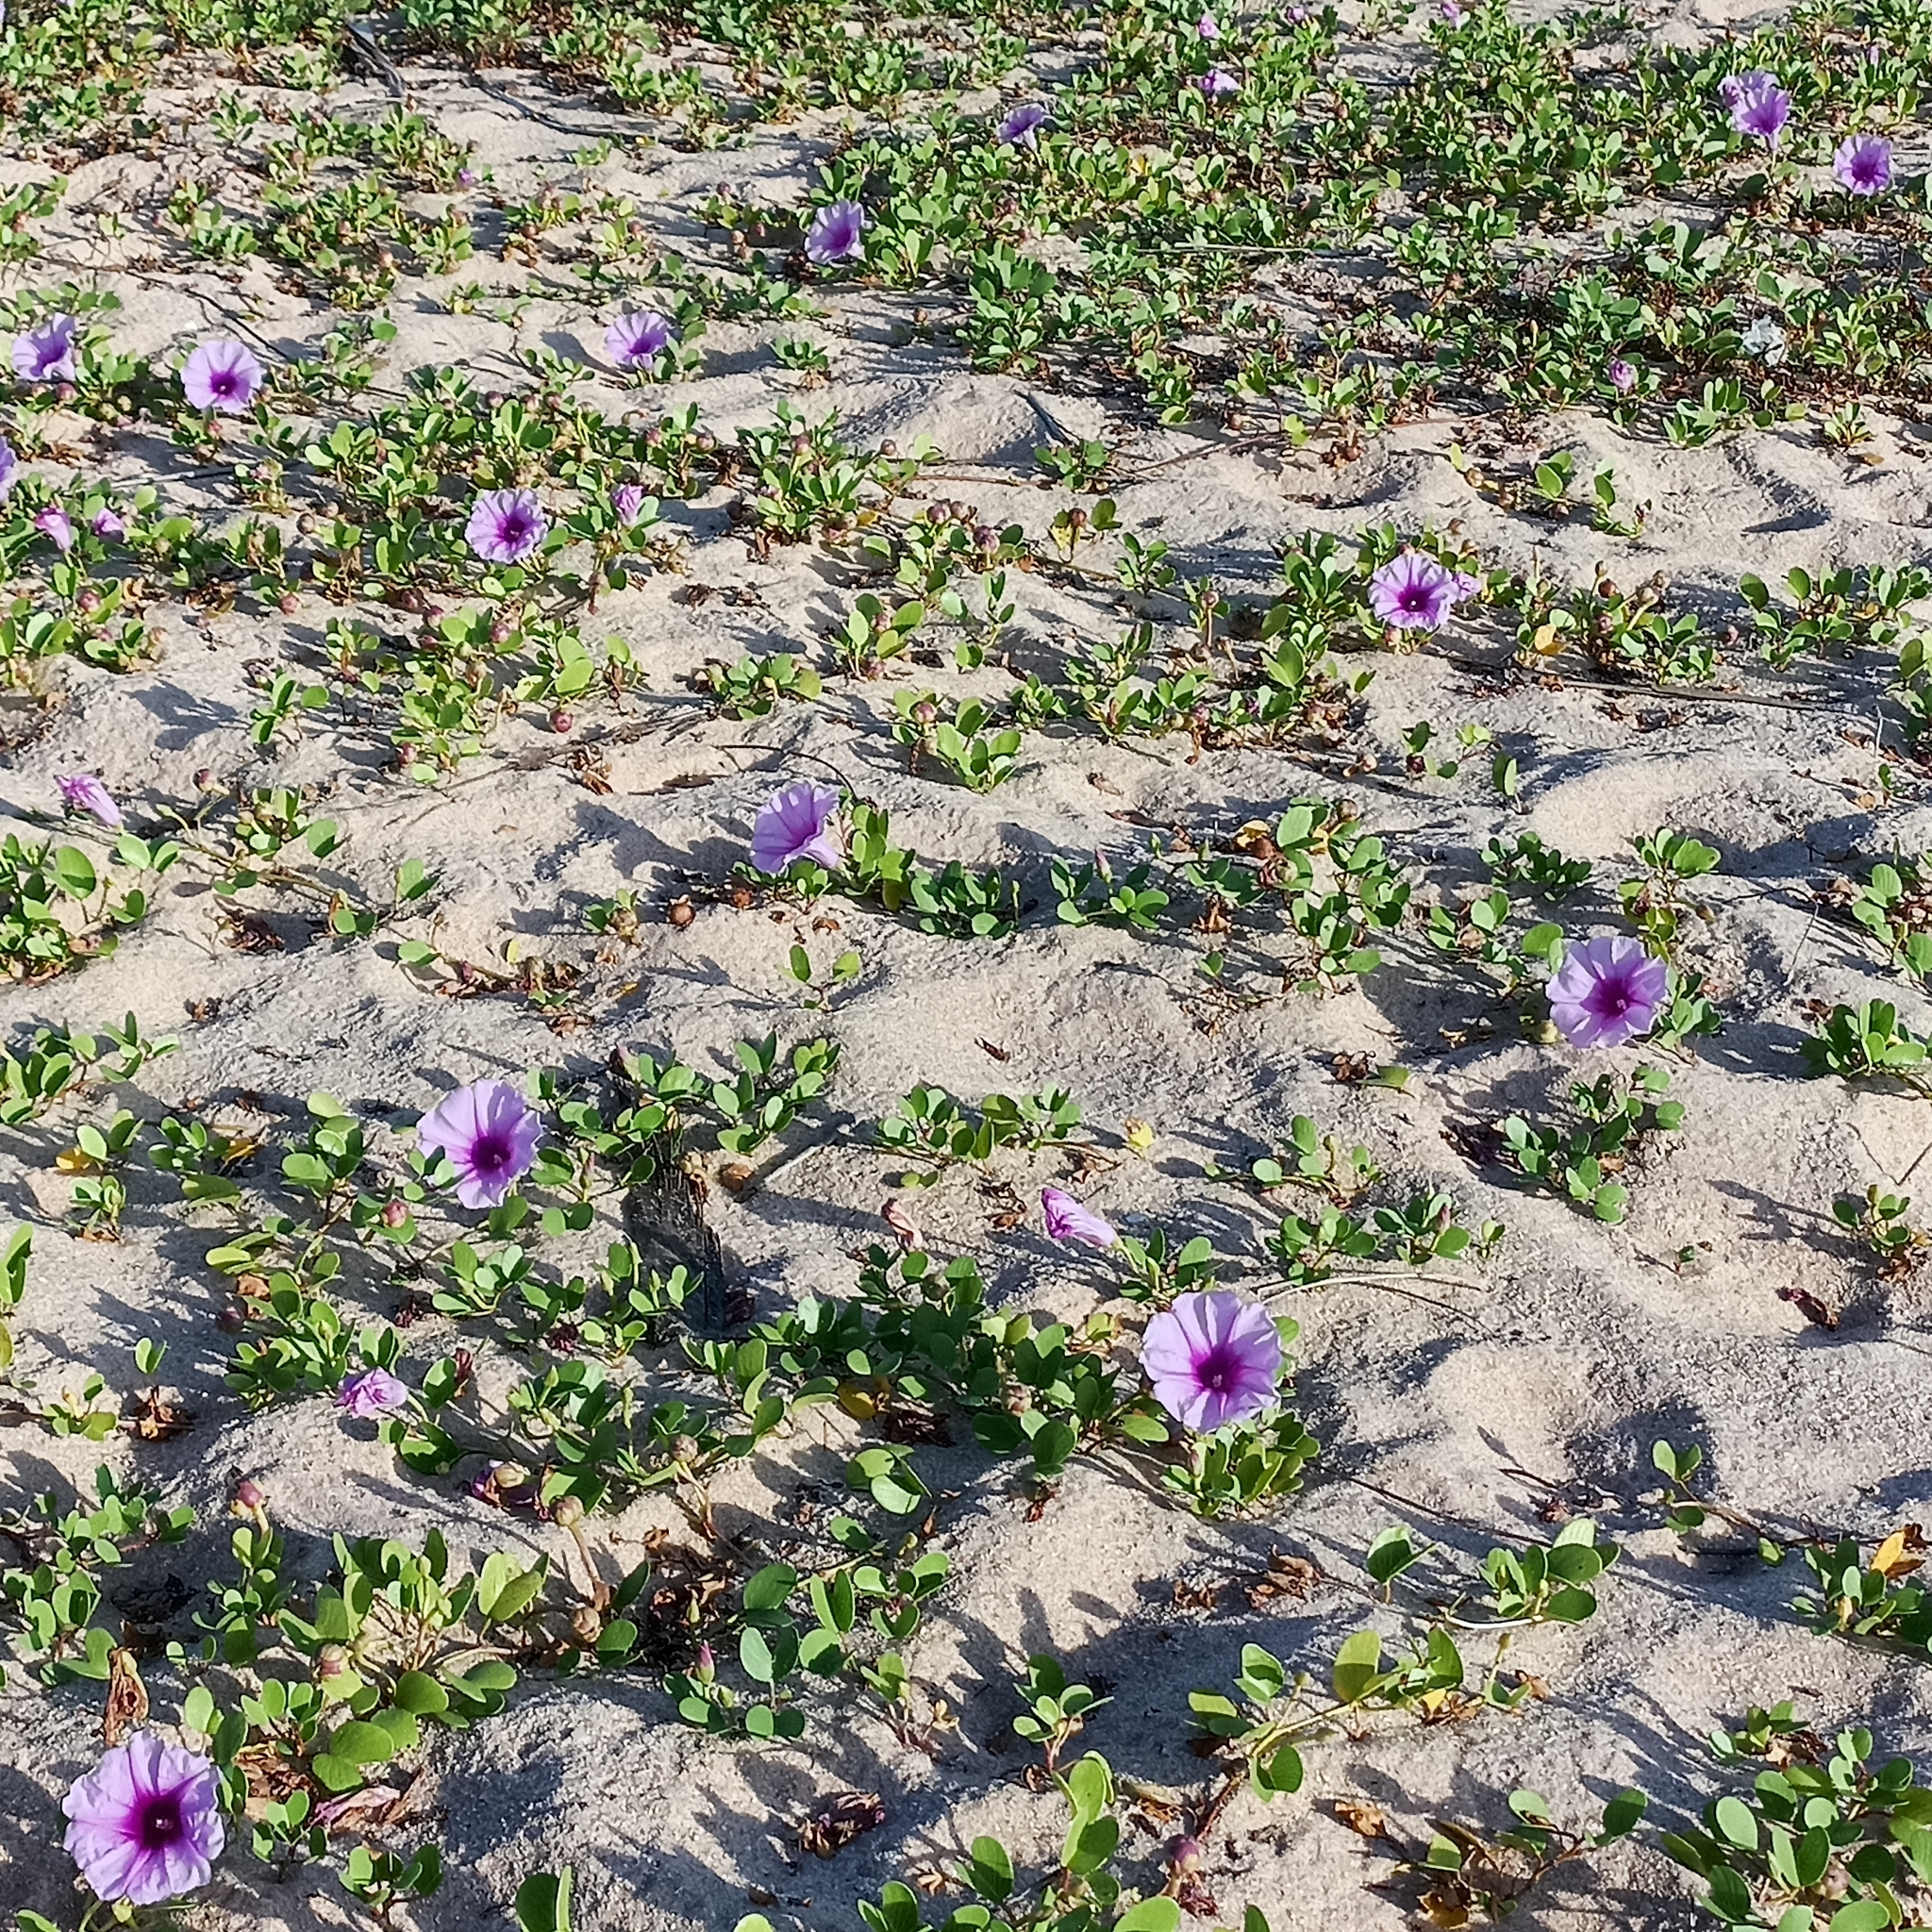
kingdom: Plantae
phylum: Tracheophyta
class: Magnoliopsida
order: Solanales
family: Convolvulaceae
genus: Ipomoea
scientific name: Ipomoea pes-caprae
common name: Beach morning glory
